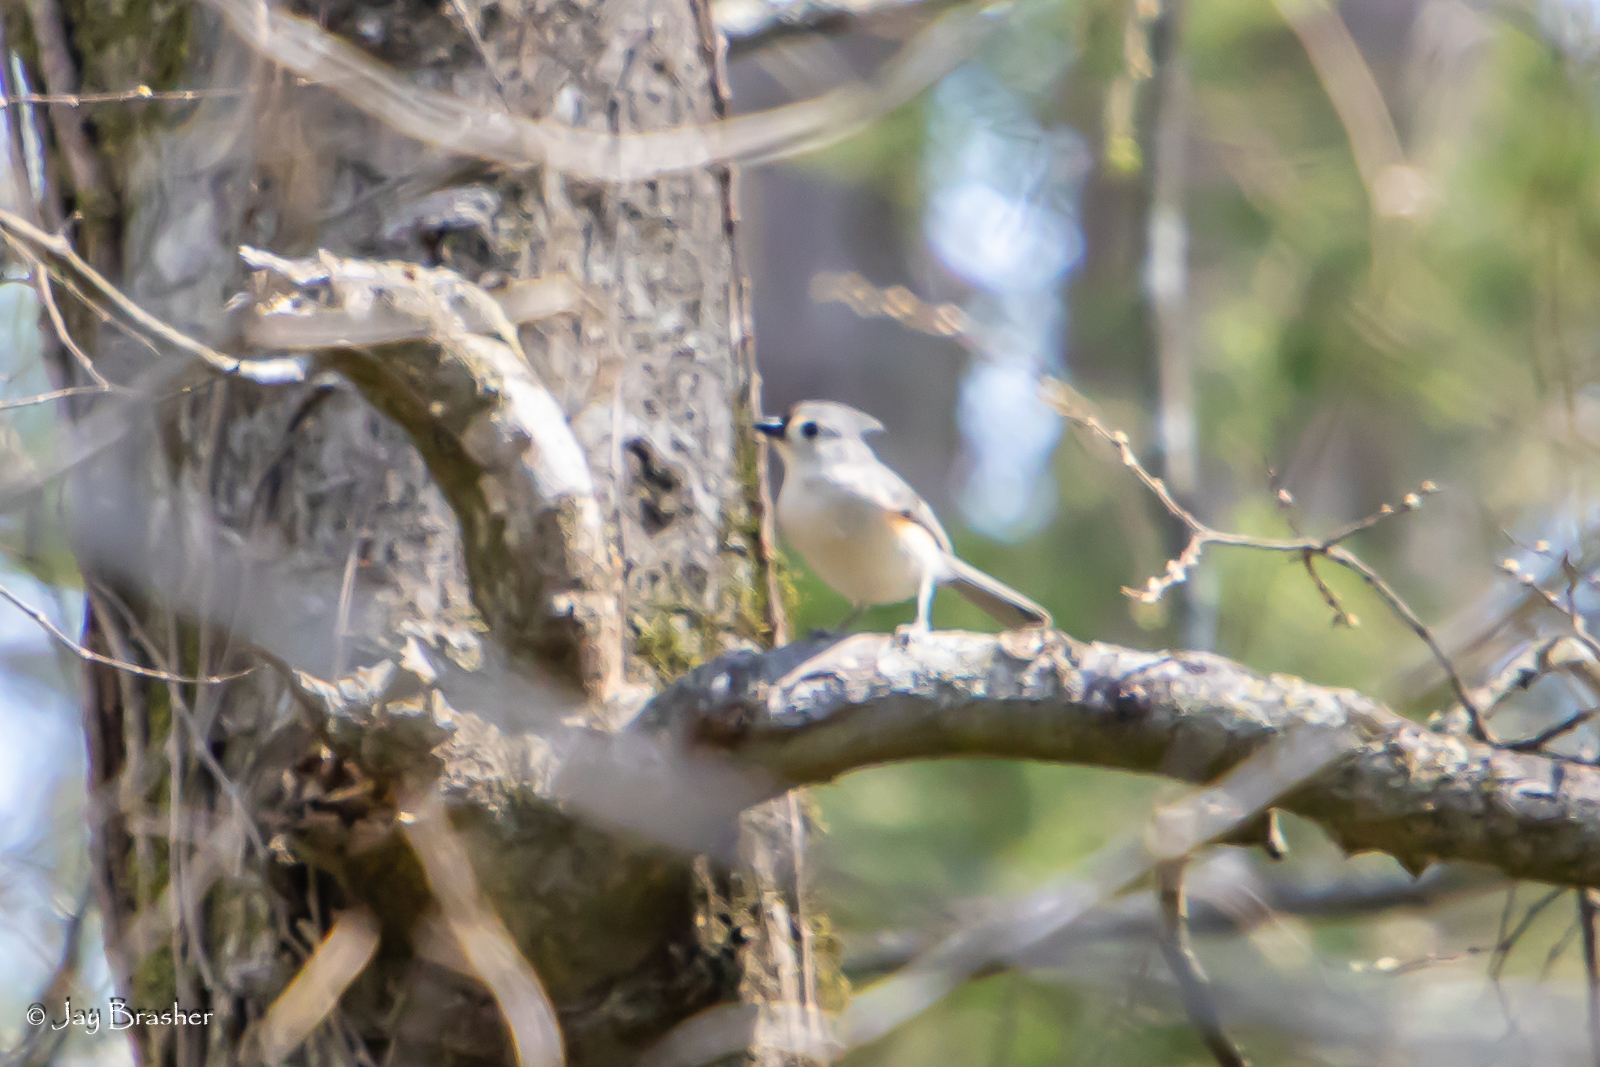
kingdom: Animalia
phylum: Chordata
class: Aves
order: Passeriformes
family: Paridae
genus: Baeolophus
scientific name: Baeolophus bicolor
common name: Tufted titmouse
